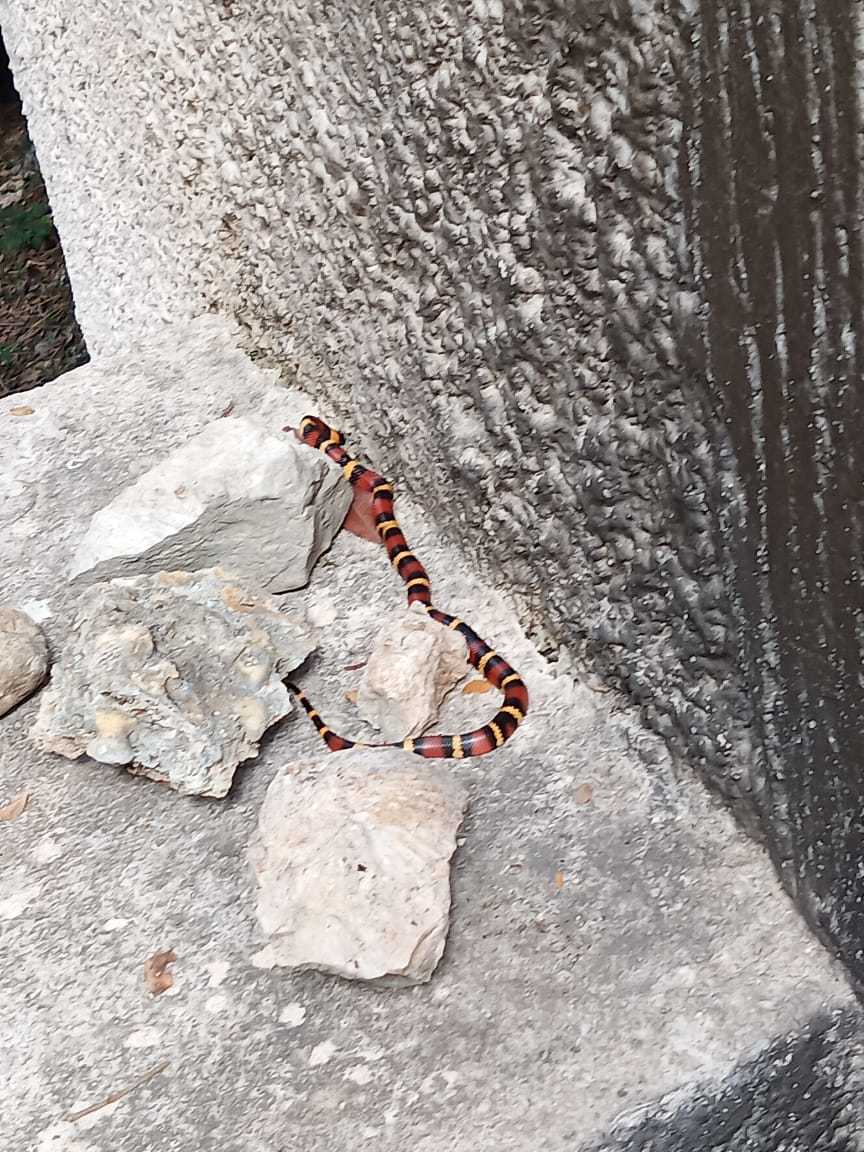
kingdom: Animalia
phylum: Chordata
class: Squamata
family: Colubridae
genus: Lampropeltis
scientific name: Lampropeltis abnorma
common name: Honduran milk snake
